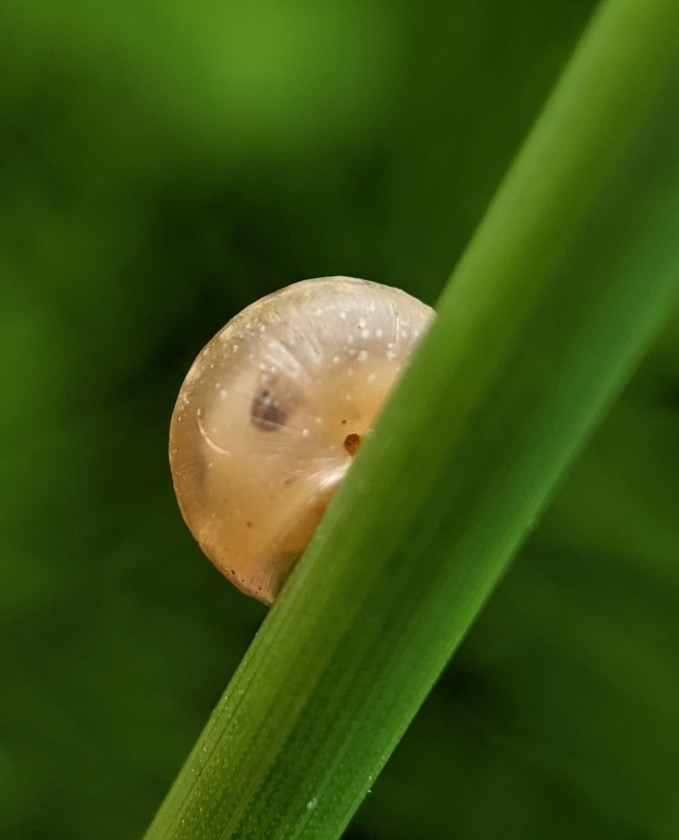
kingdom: Animalia
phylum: Mollusca
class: Gastropoda
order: Stylommatophora
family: Hygromiidae
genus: Hygromia
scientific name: Hygromia cinctella
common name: Girdled snail
